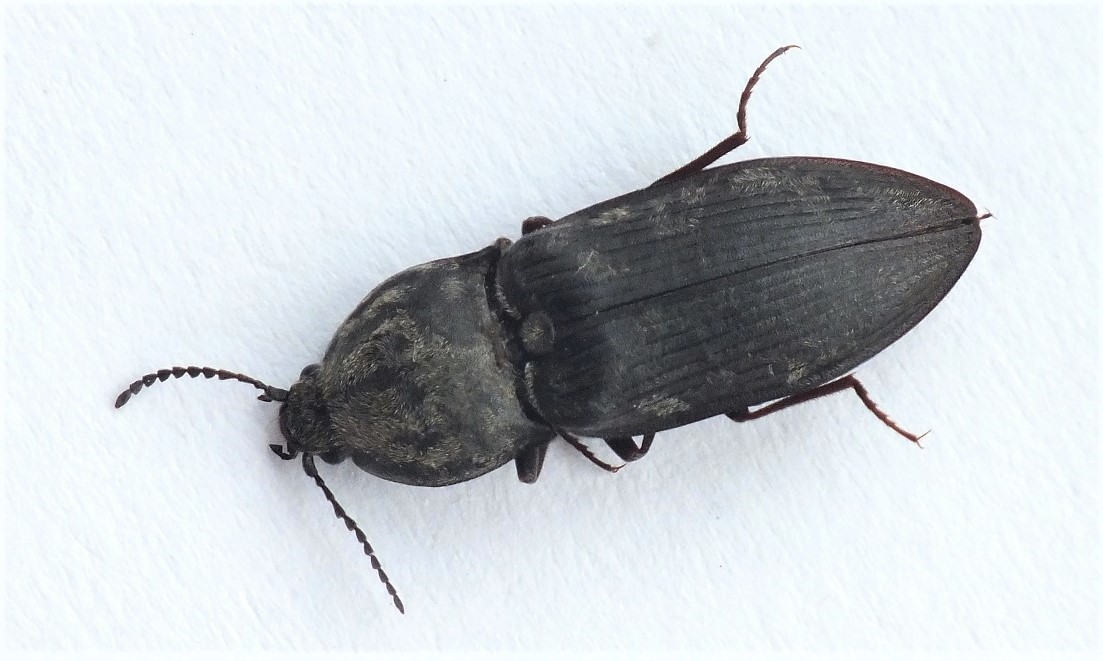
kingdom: Animalia
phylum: Arthropoda
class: Insecta
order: Coleoptera
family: Elateridae
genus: Prosternon
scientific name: Prosternon tessellatum
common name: Chequered click beetle
